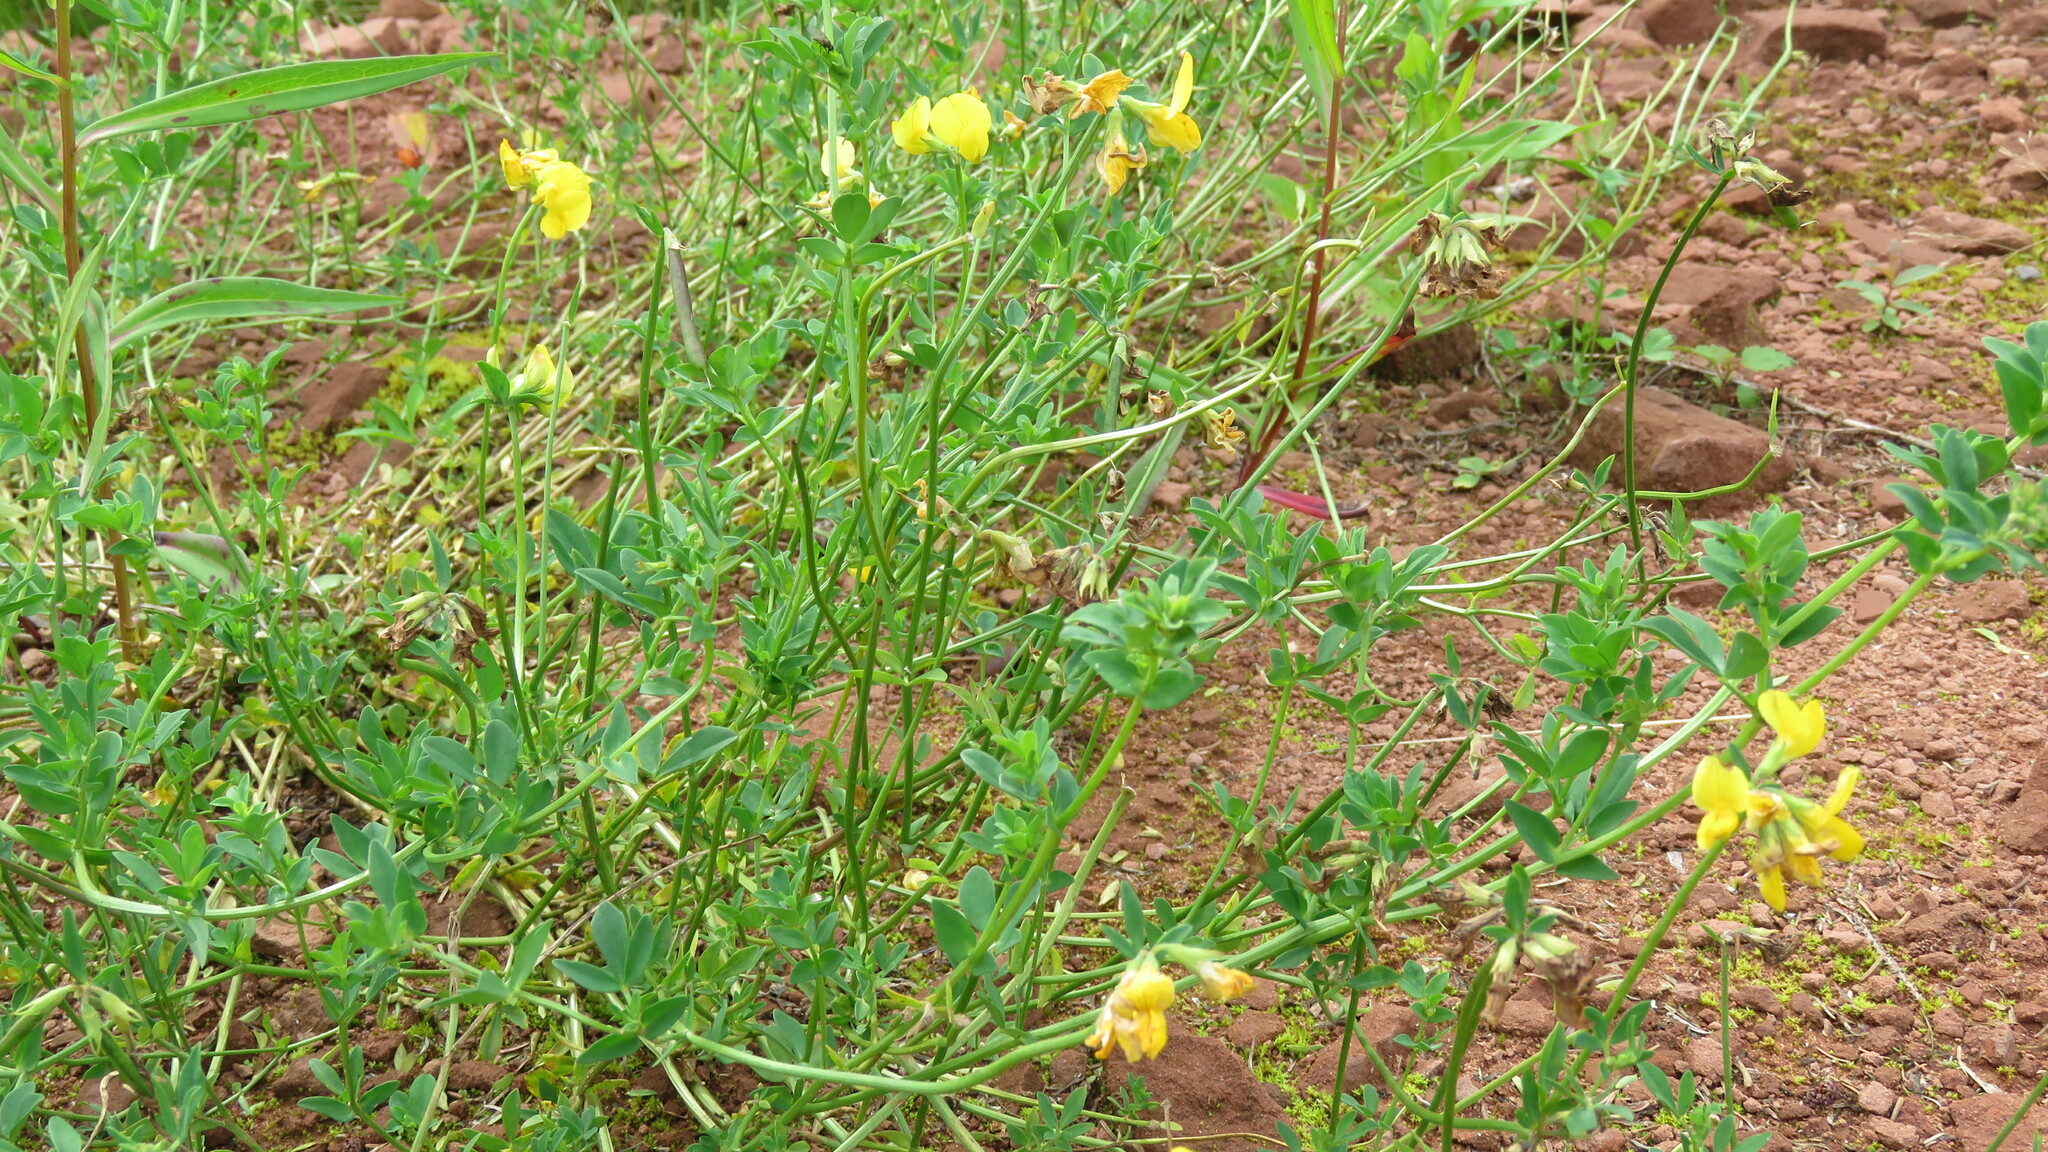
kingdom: Plantae
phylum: Tracheophyta
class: Magnoliopsida
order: Fabales
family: Fabaceae
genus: Lotus
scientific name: Lotus corniculatus
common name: Common bird's-foot-trefoil
